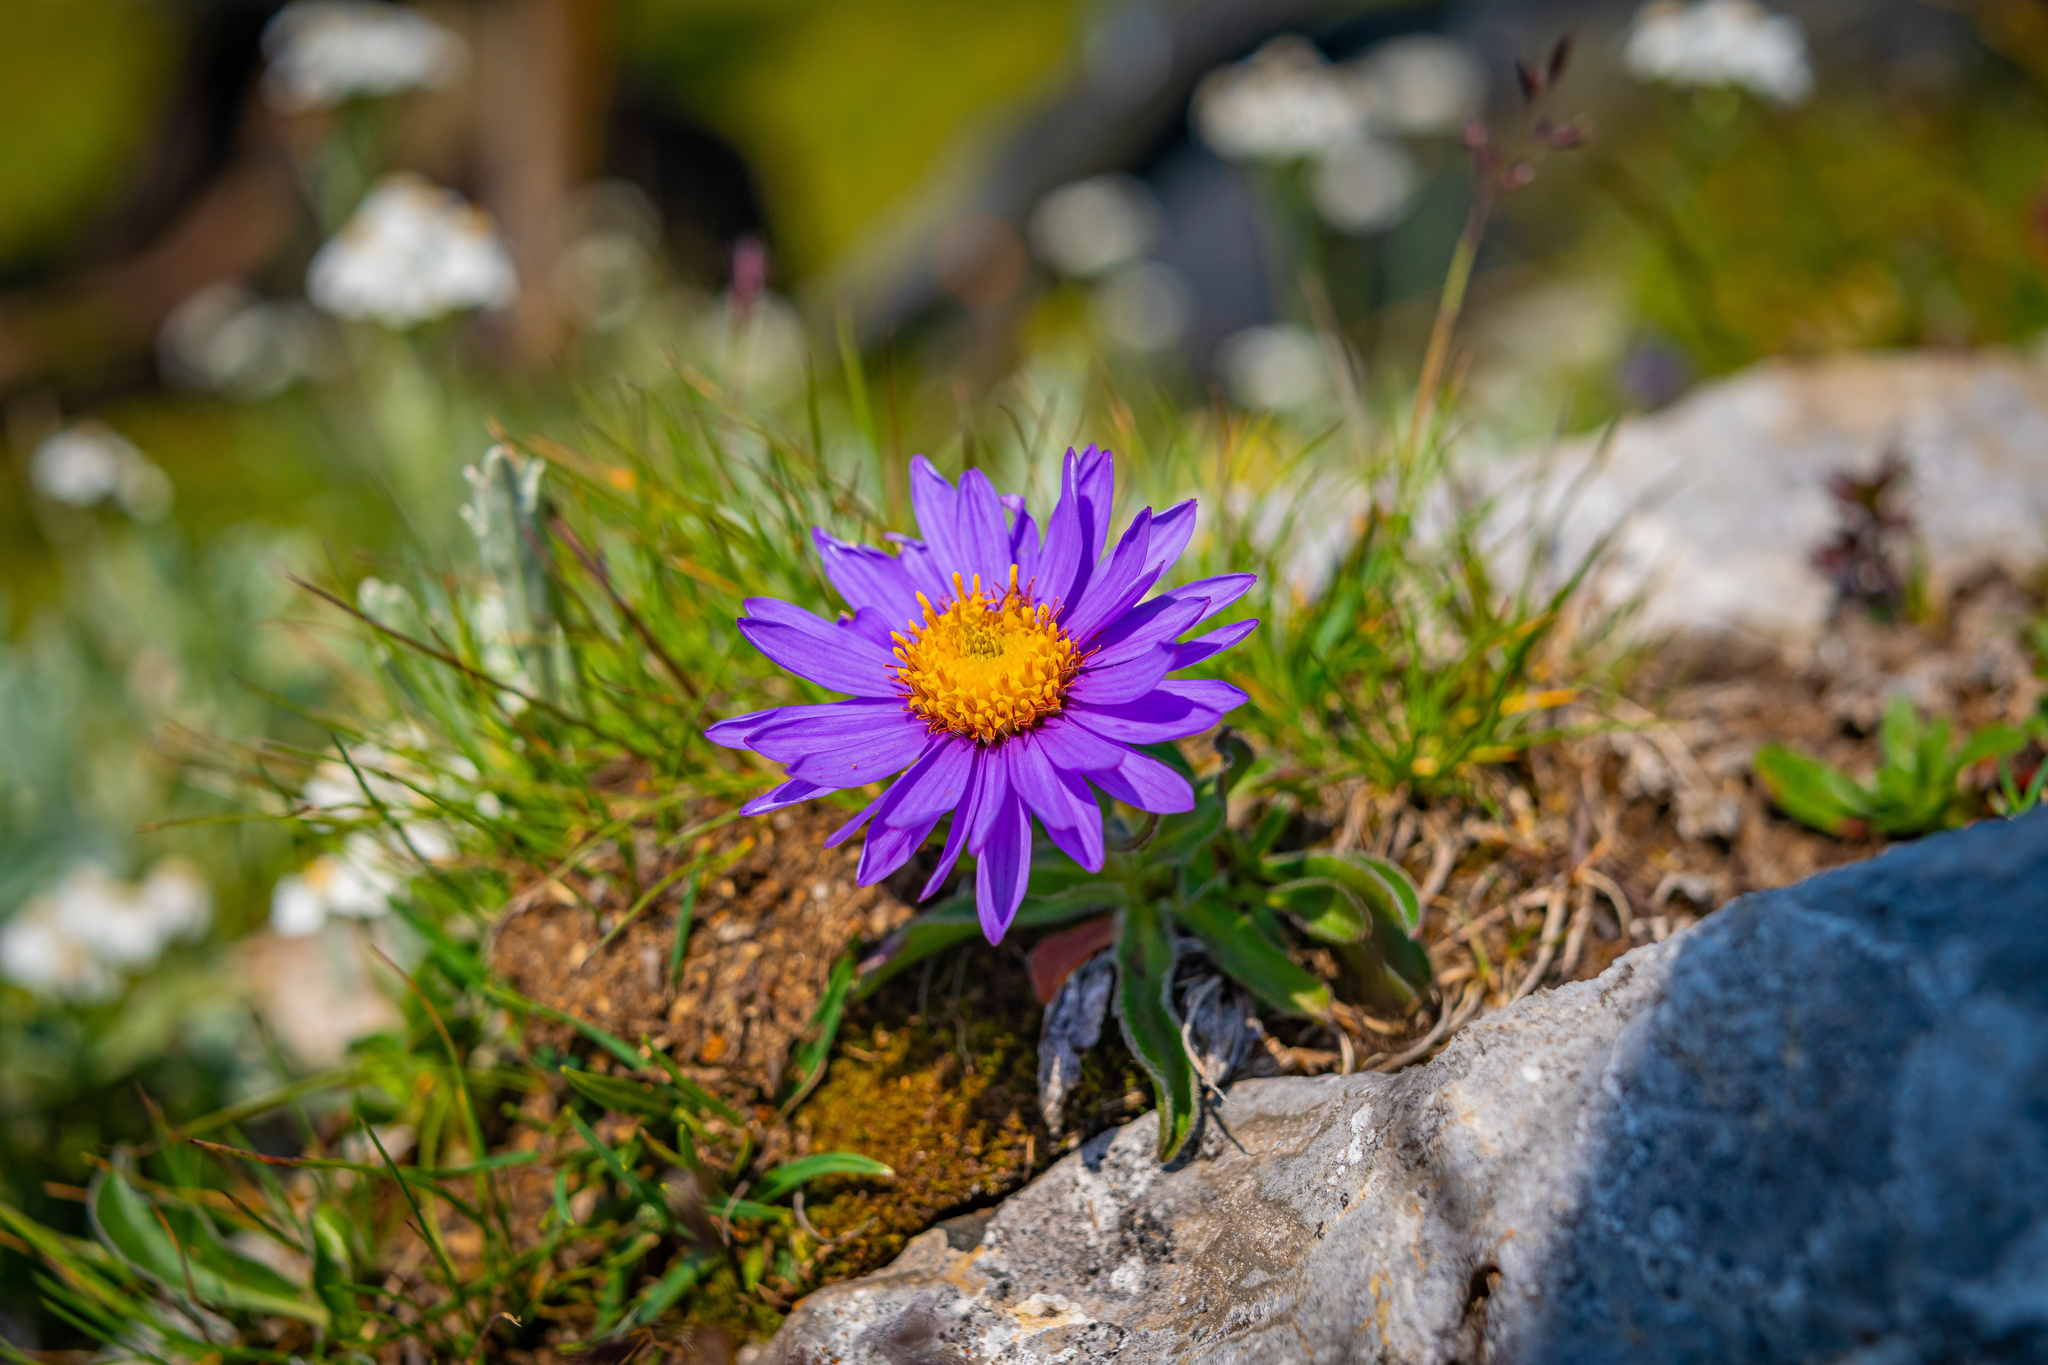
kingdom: Plantae
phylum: Tracheophyta
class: Magnoliopsida
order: Asterales
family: Asteraceae
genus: Aster
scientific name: Aster alpinus
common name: Alpine aster
